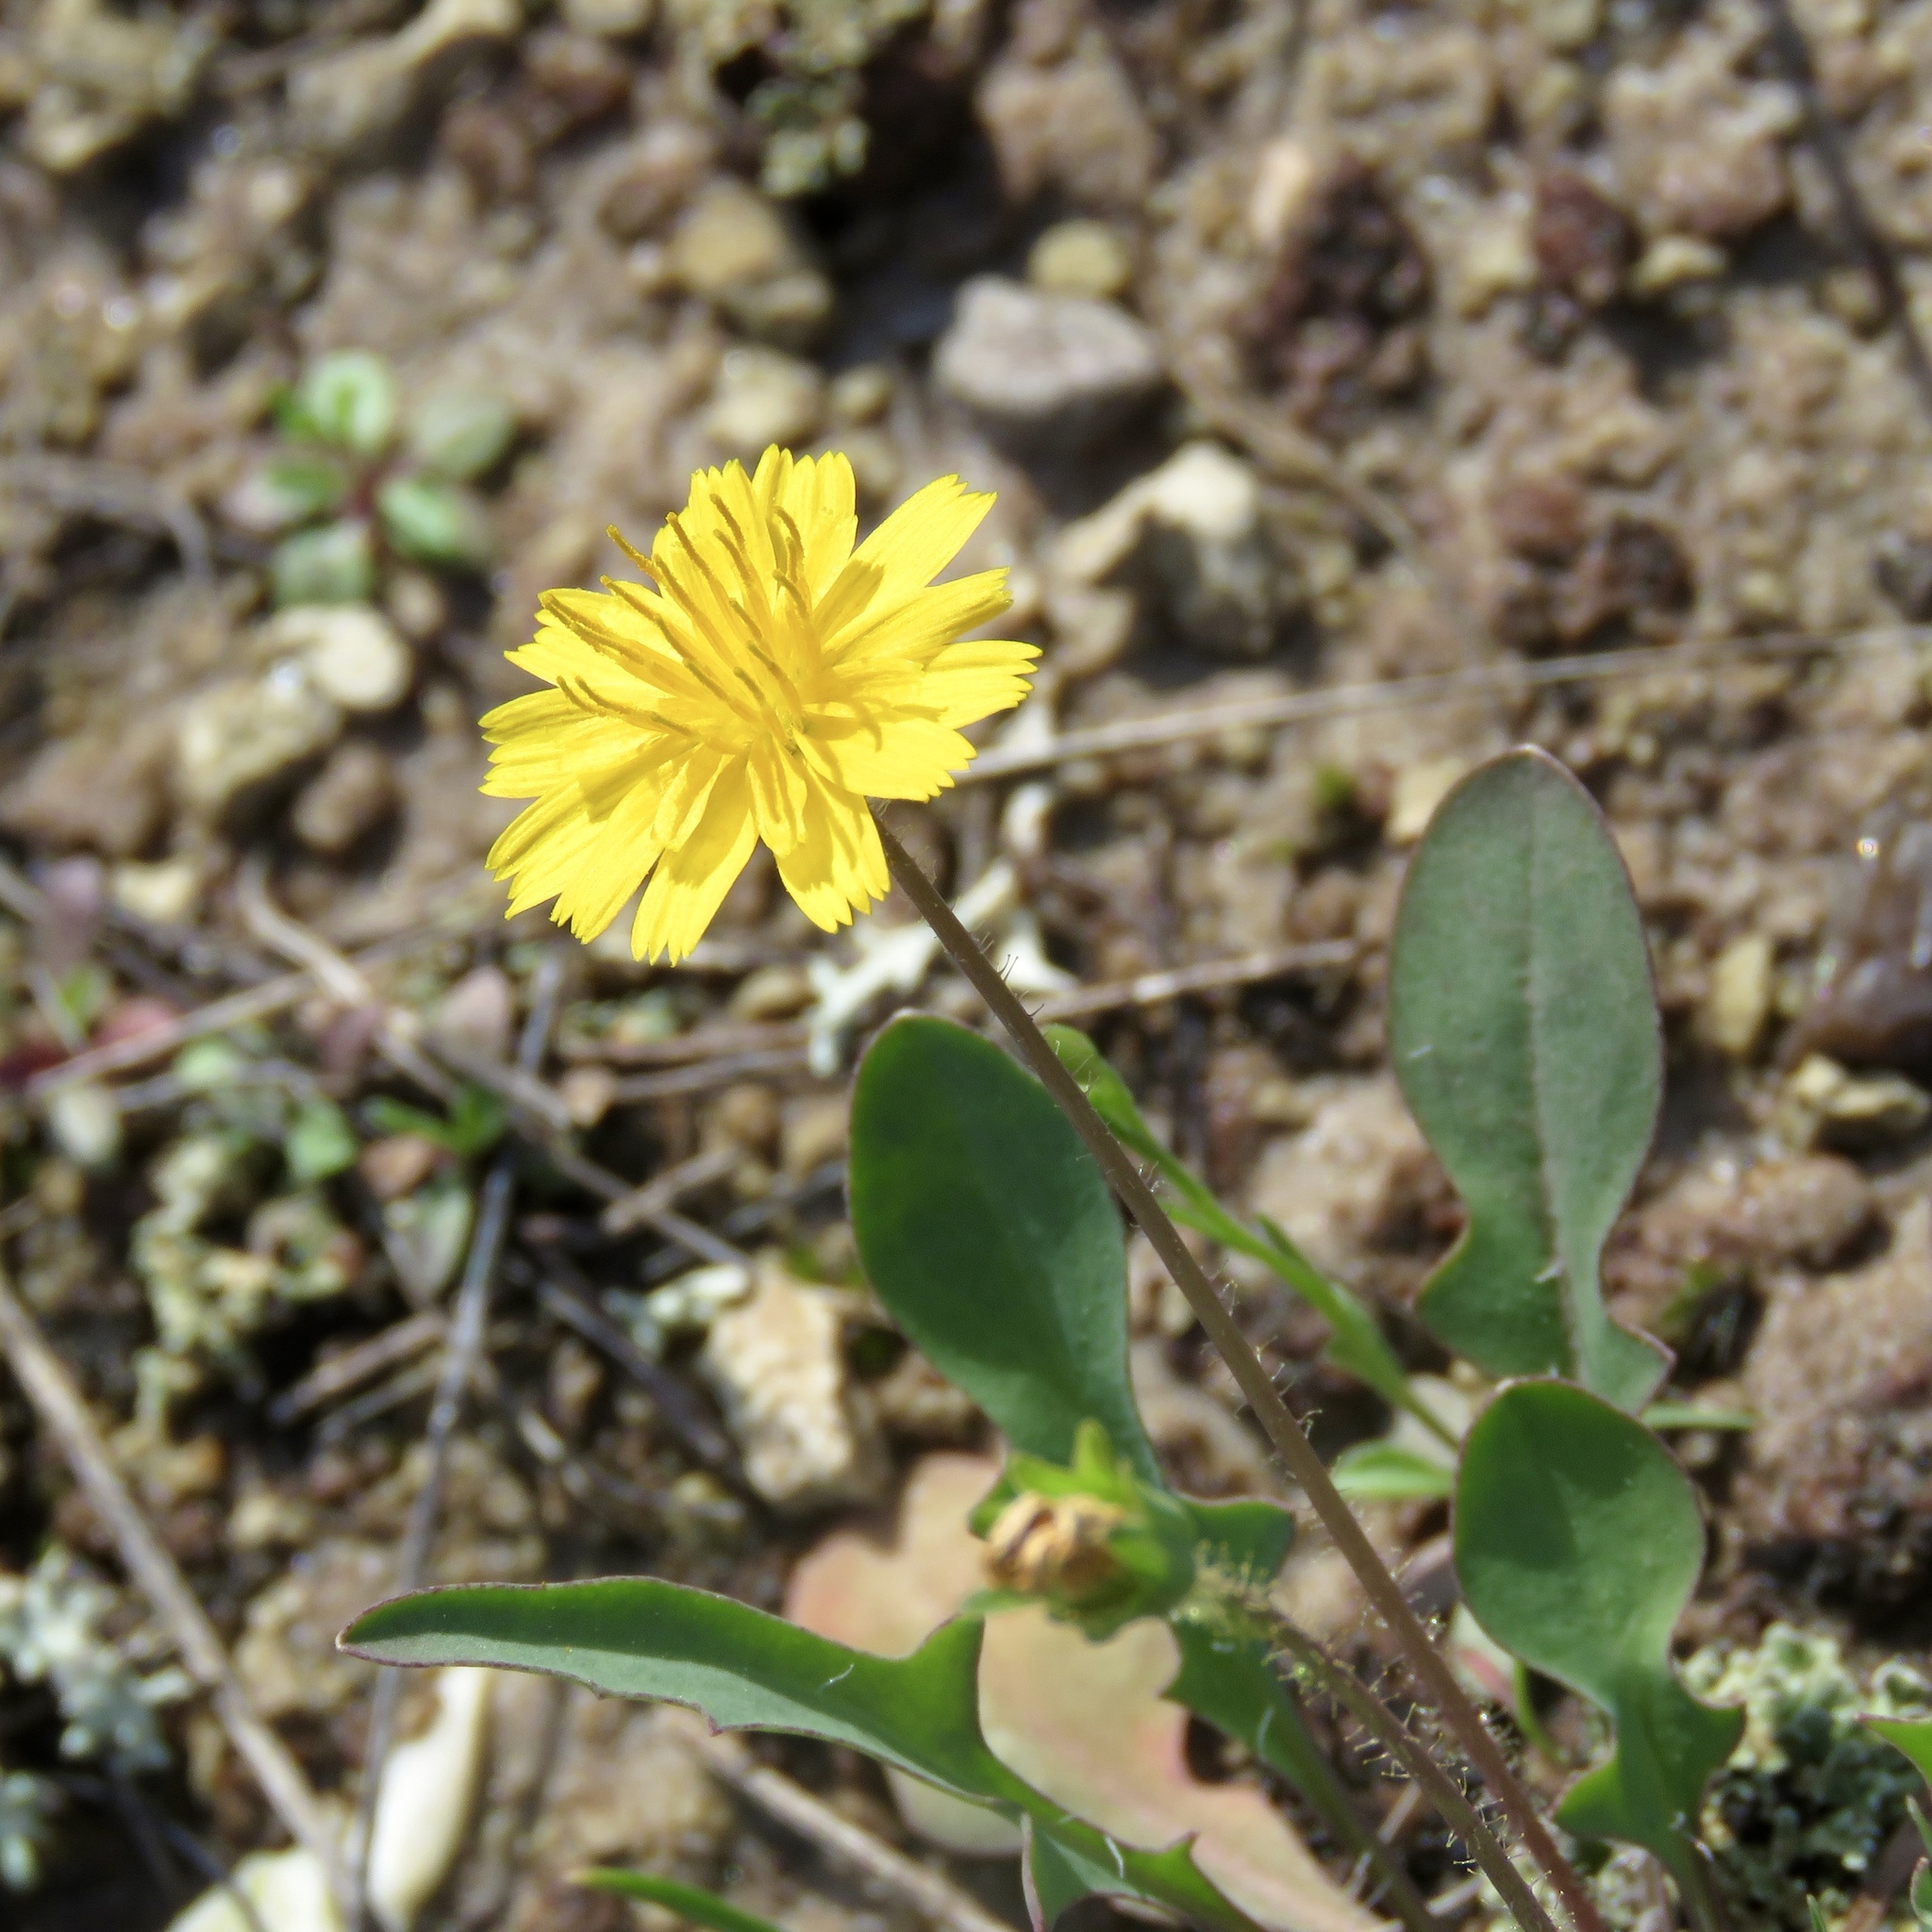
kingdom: Plantae
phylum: Tracheophyta
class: Magnoliopsida
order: Asterales
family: Asteraceae
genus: Krigia
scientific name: Krigia occidentalis
